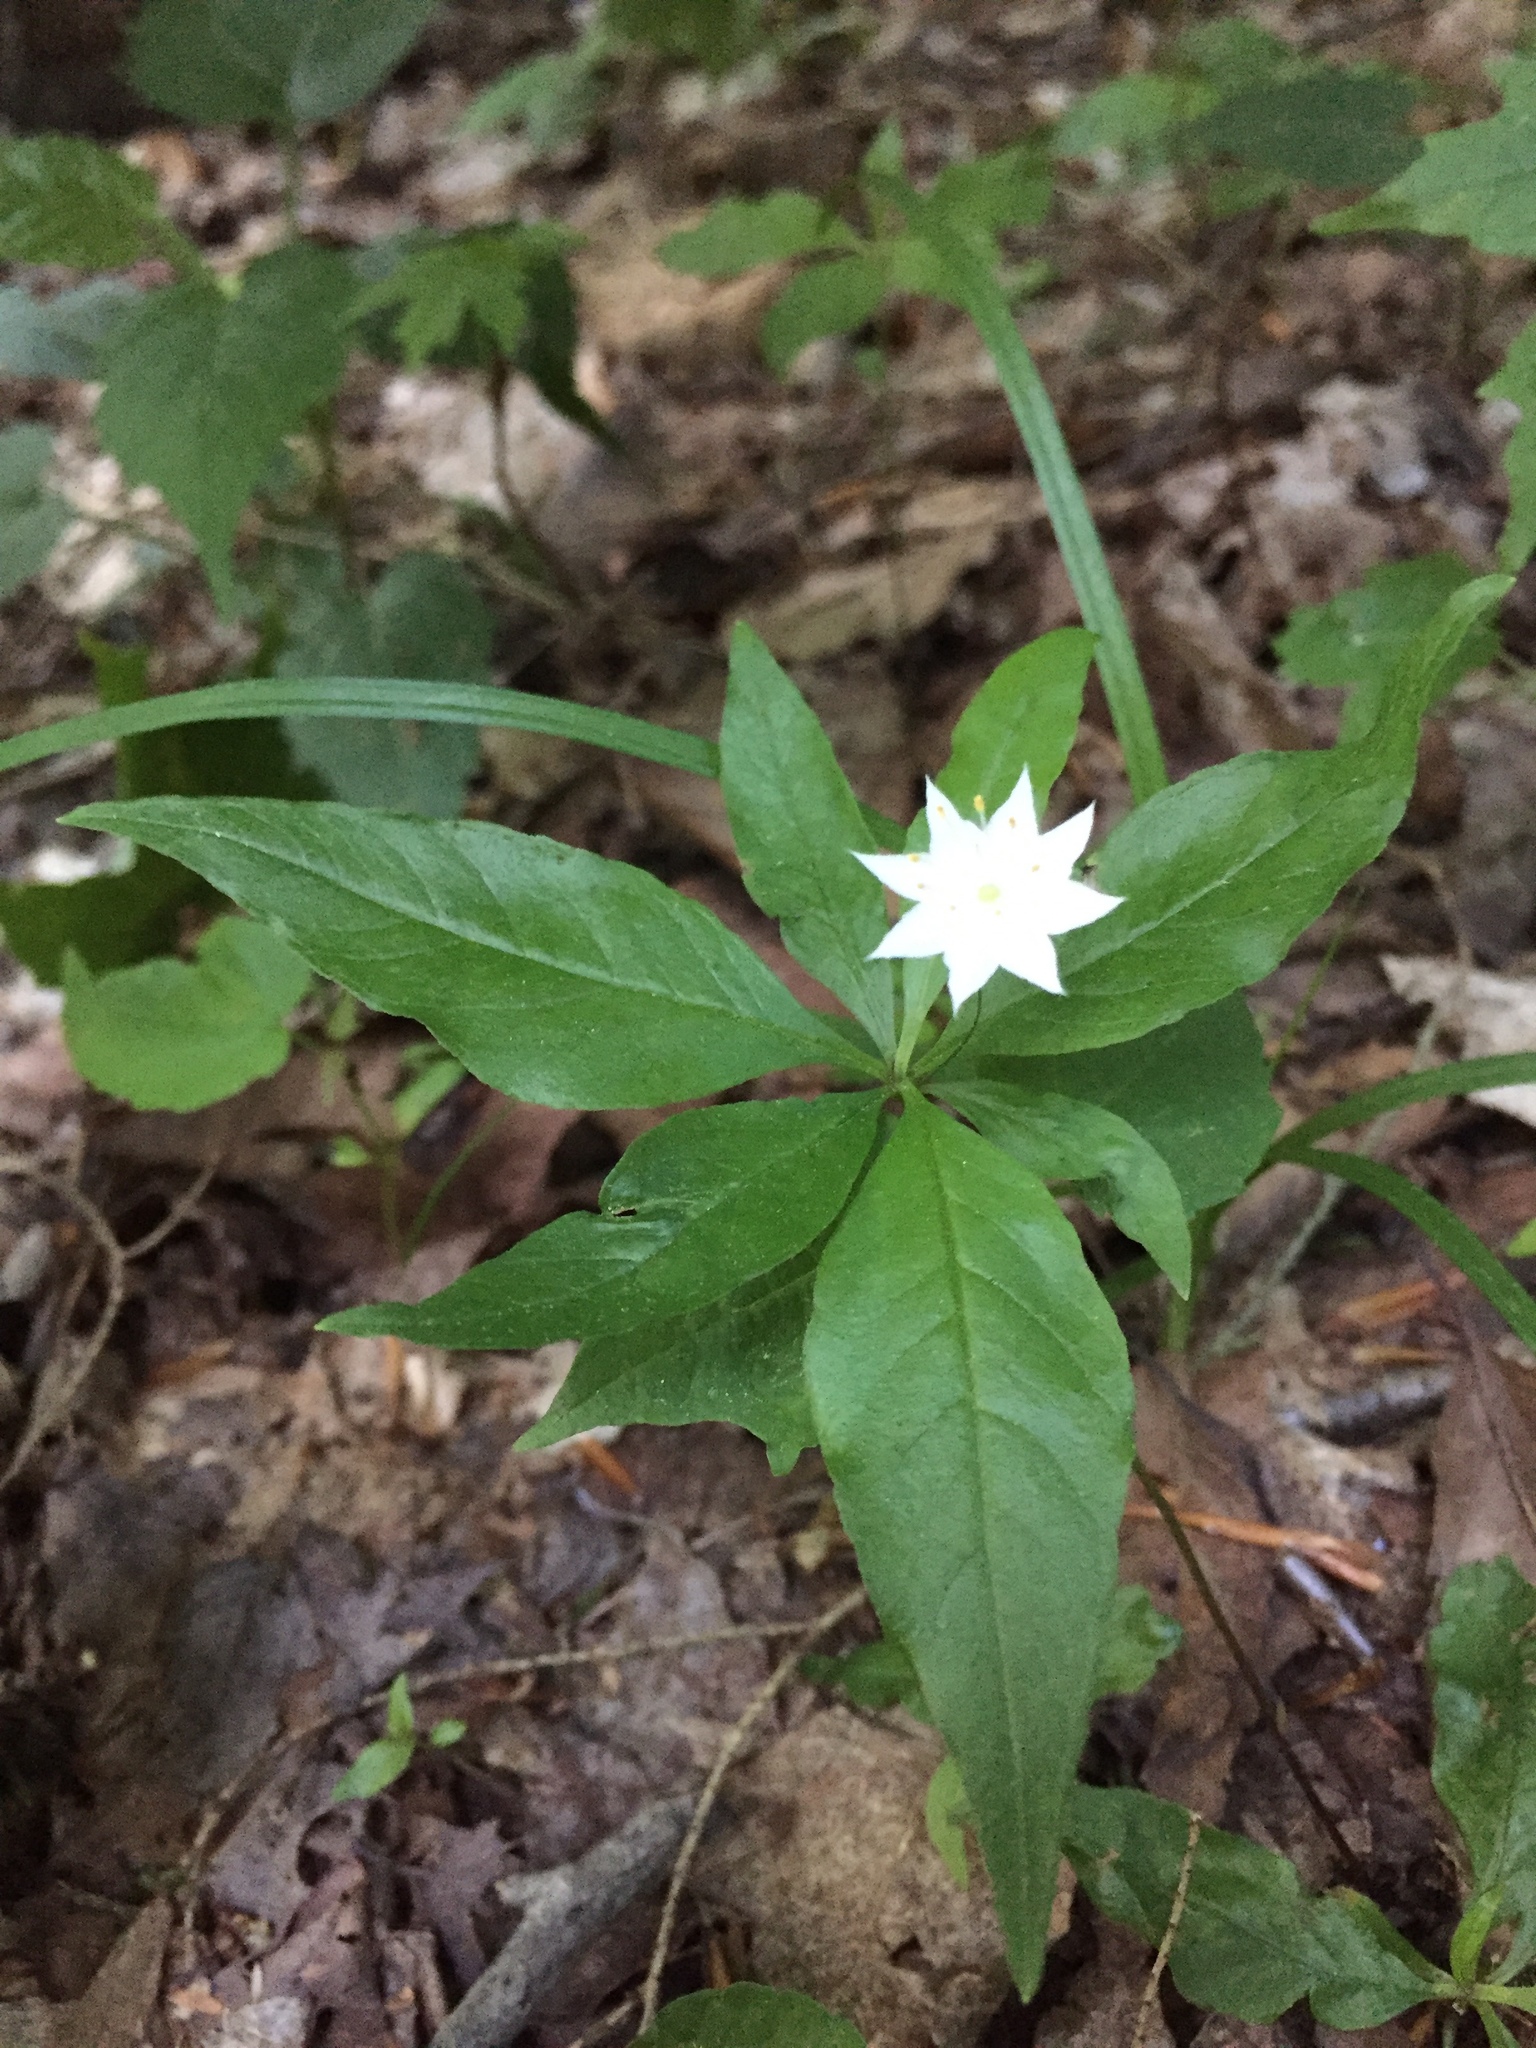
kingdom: Plantae
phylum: Tracheophyta
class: Magnoliopsida
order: Ericales
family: Primulaceae
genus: Lysimachia
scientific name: Lysimachia borealis
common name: American starflower
